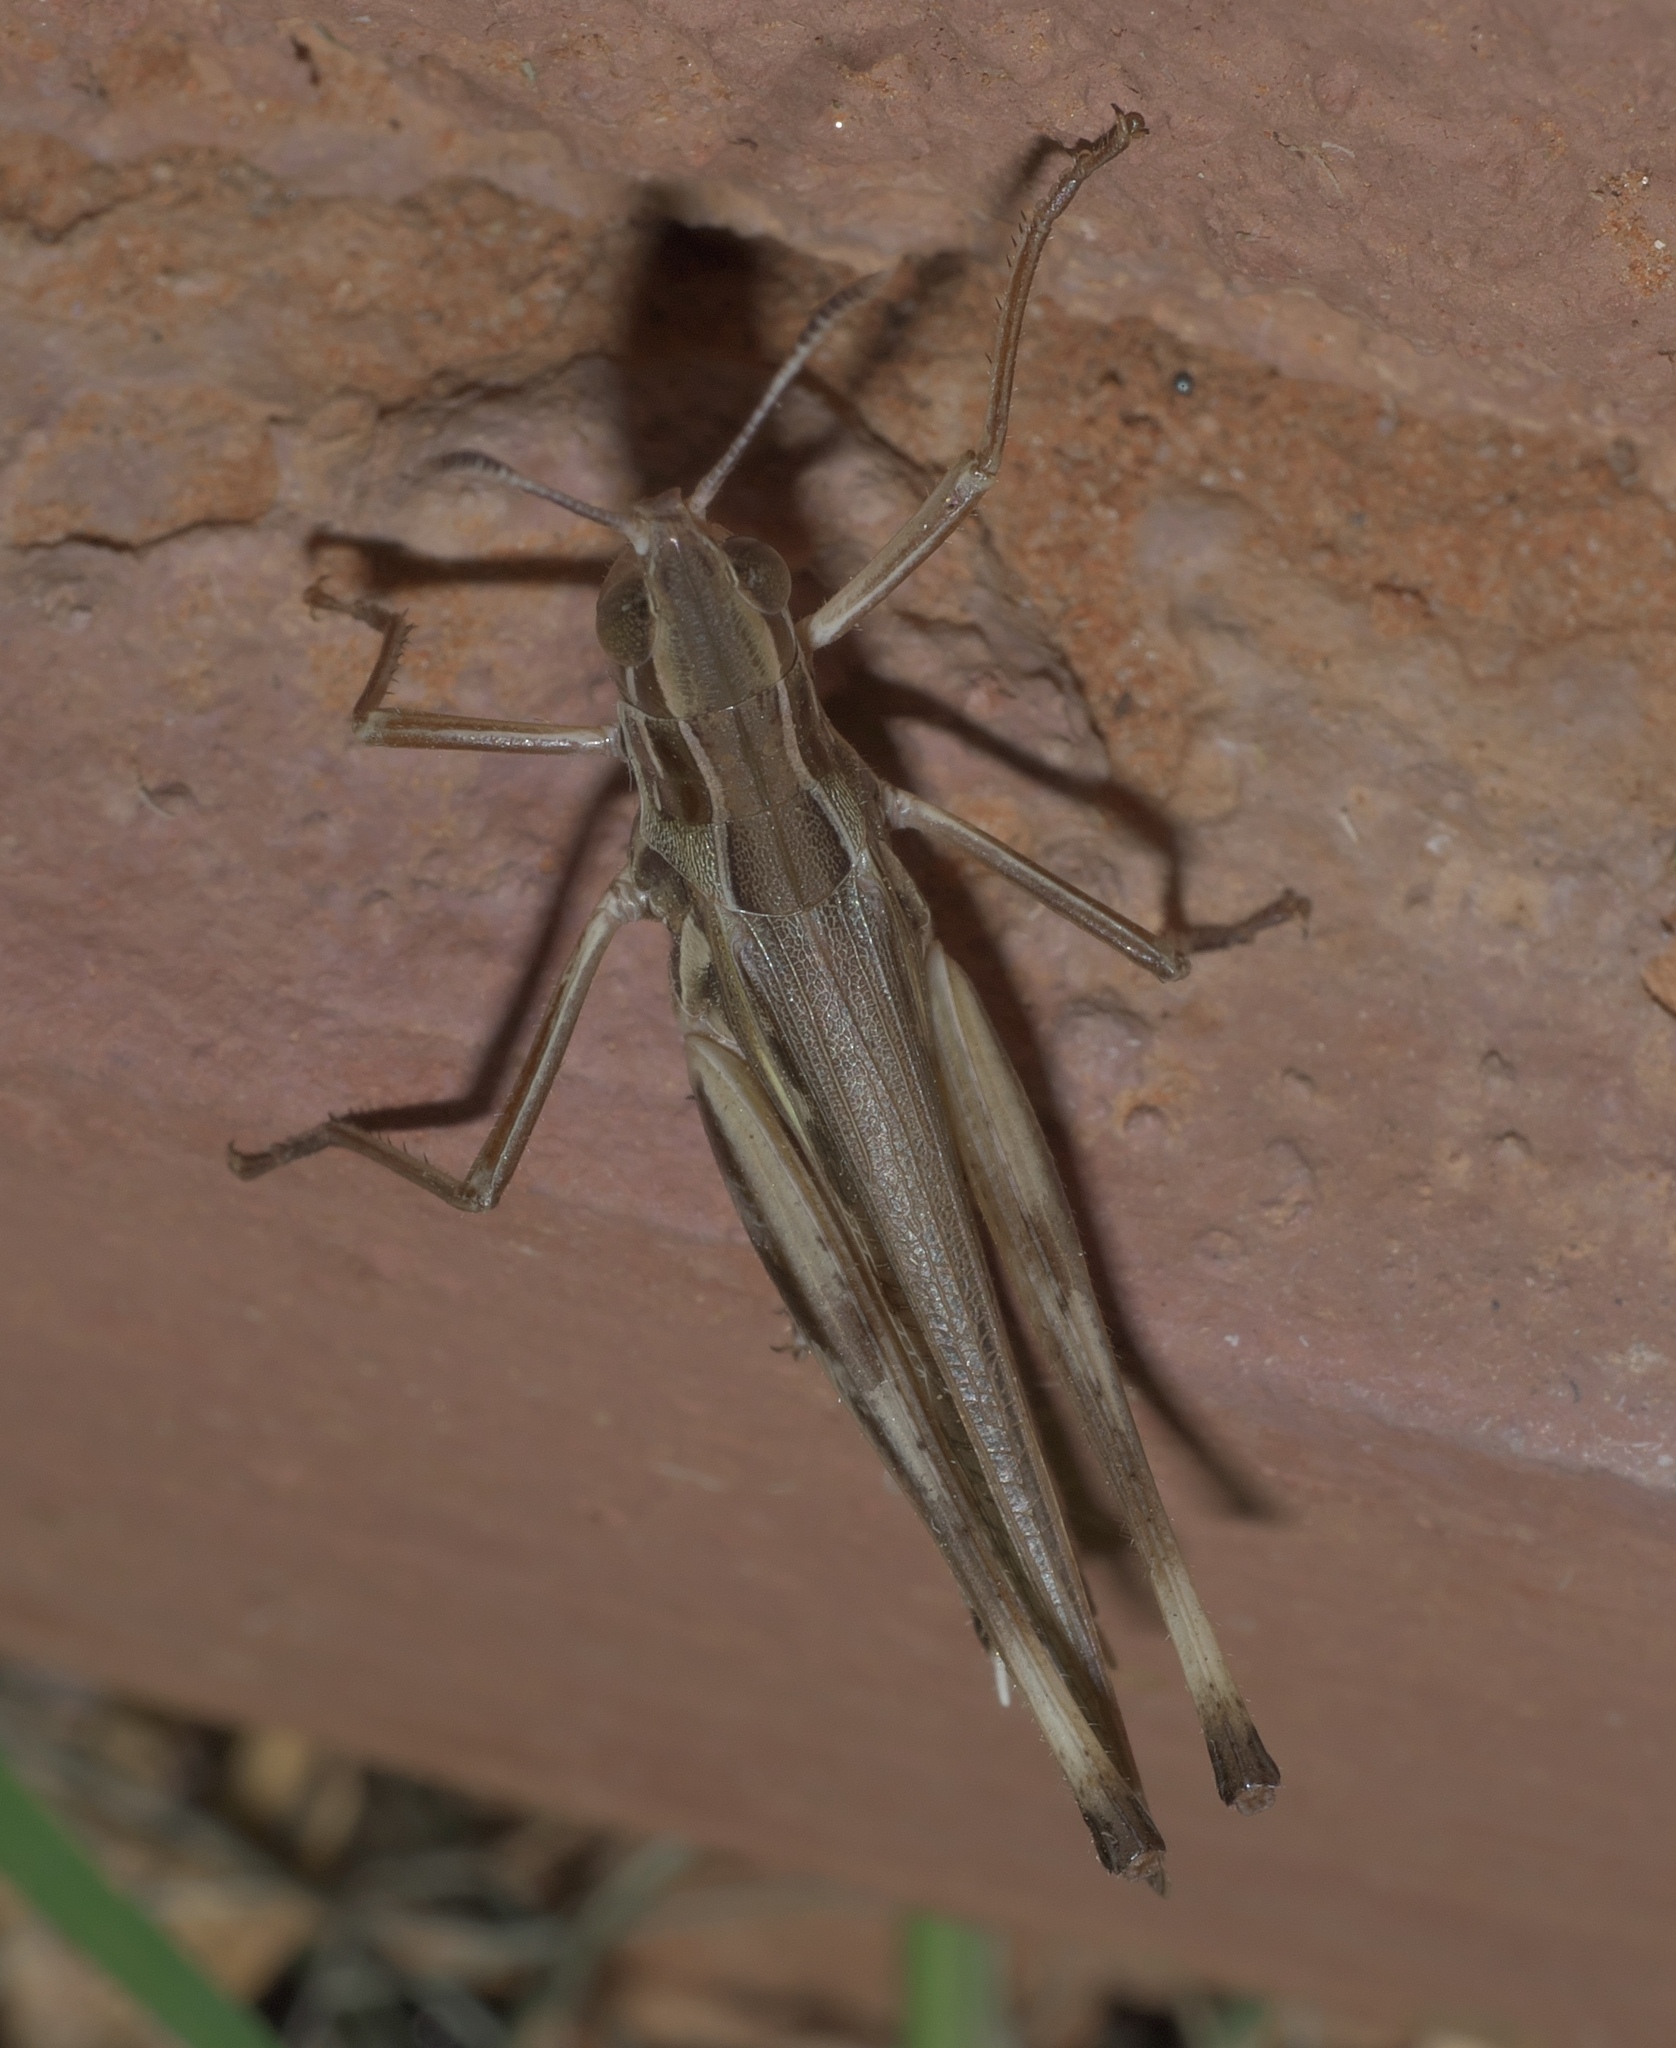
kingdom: Animalia
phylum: Arthropoda
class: Insecta
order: Orthoptera
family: Acrididae
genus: Syrbula
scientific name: Syrbula admirabilis
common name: Handsome grasshopper
